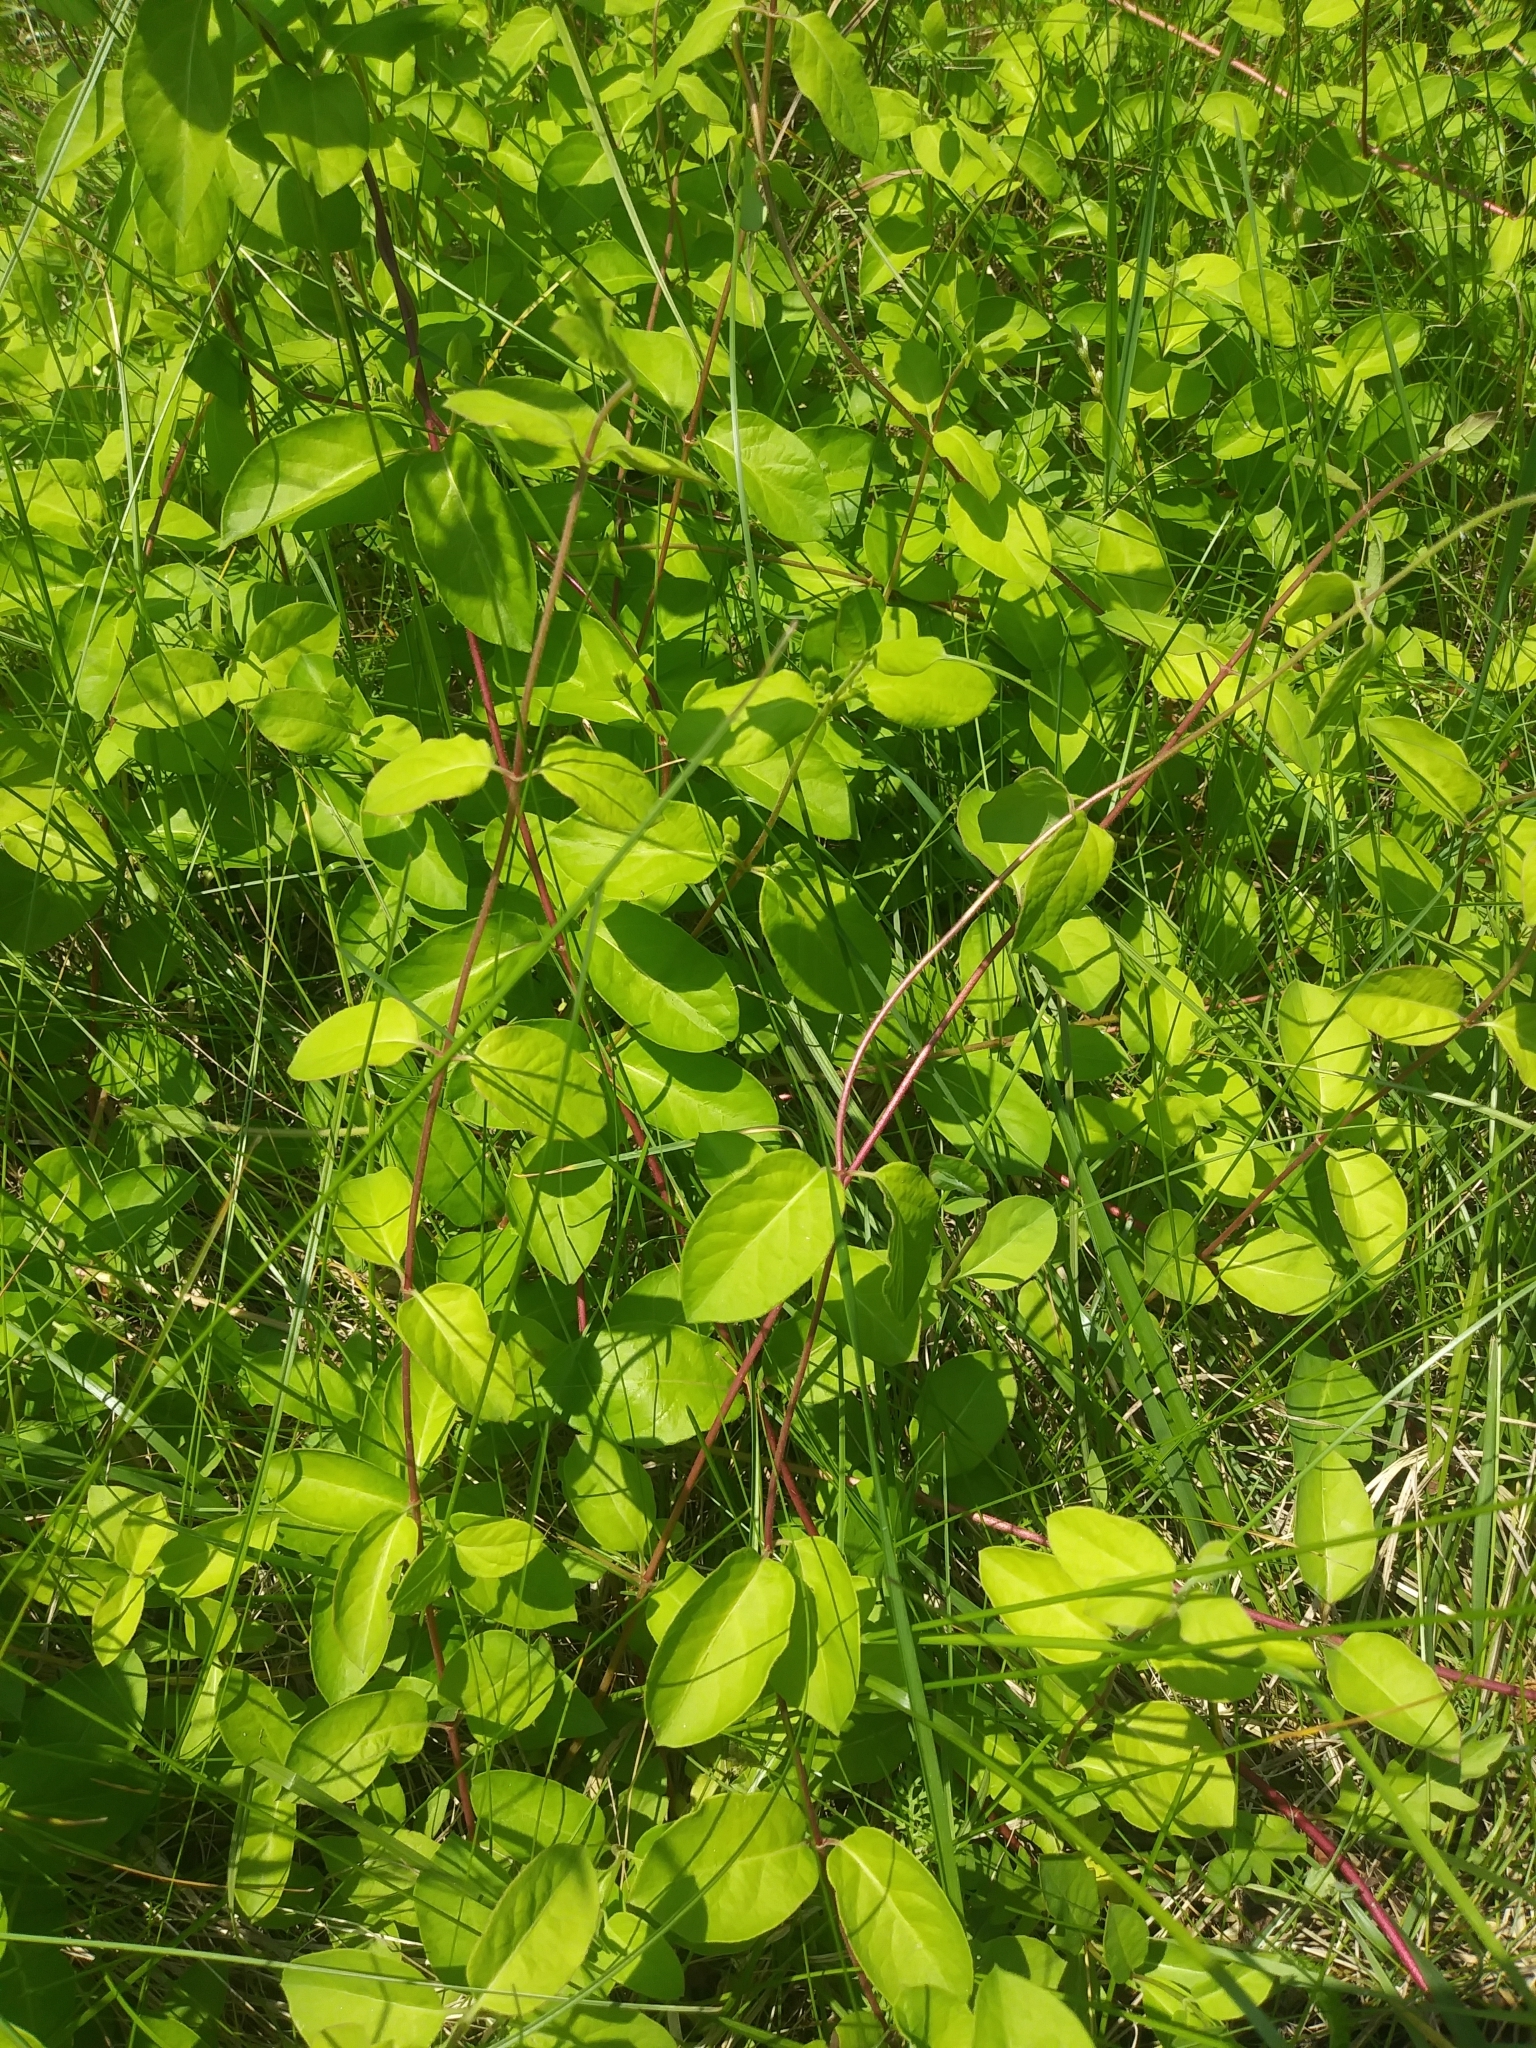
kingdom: Plantae
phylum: Tracheophyta
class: Magnoliopsida
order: Dipsacales
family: Caprifoliaceae
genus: Lonicera
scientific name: Lonicera japonica
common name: Japanese honeysuckle
